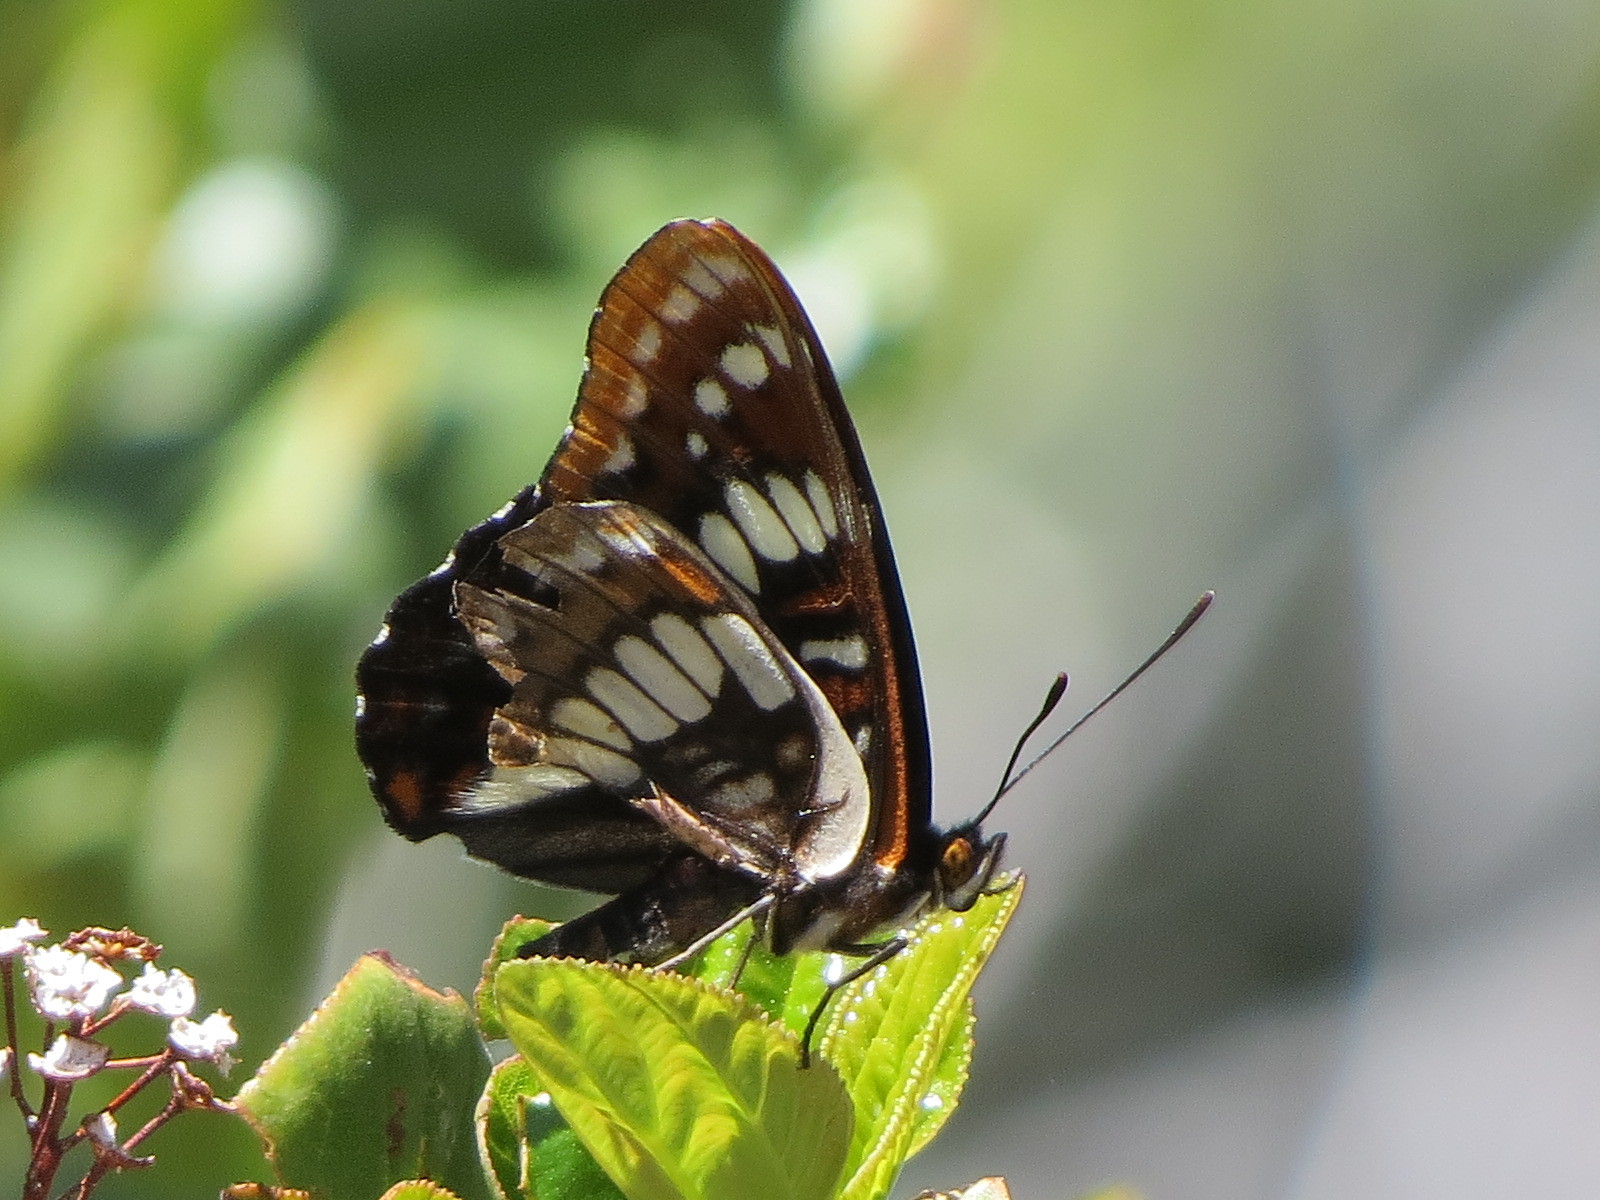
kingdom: Animalia
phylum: Arthropoda
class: Insecta
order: Lepidoptera
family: Nymphalidae
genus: Limenitis
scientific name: Limenitis lorquini
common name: Lorquin's admiral
